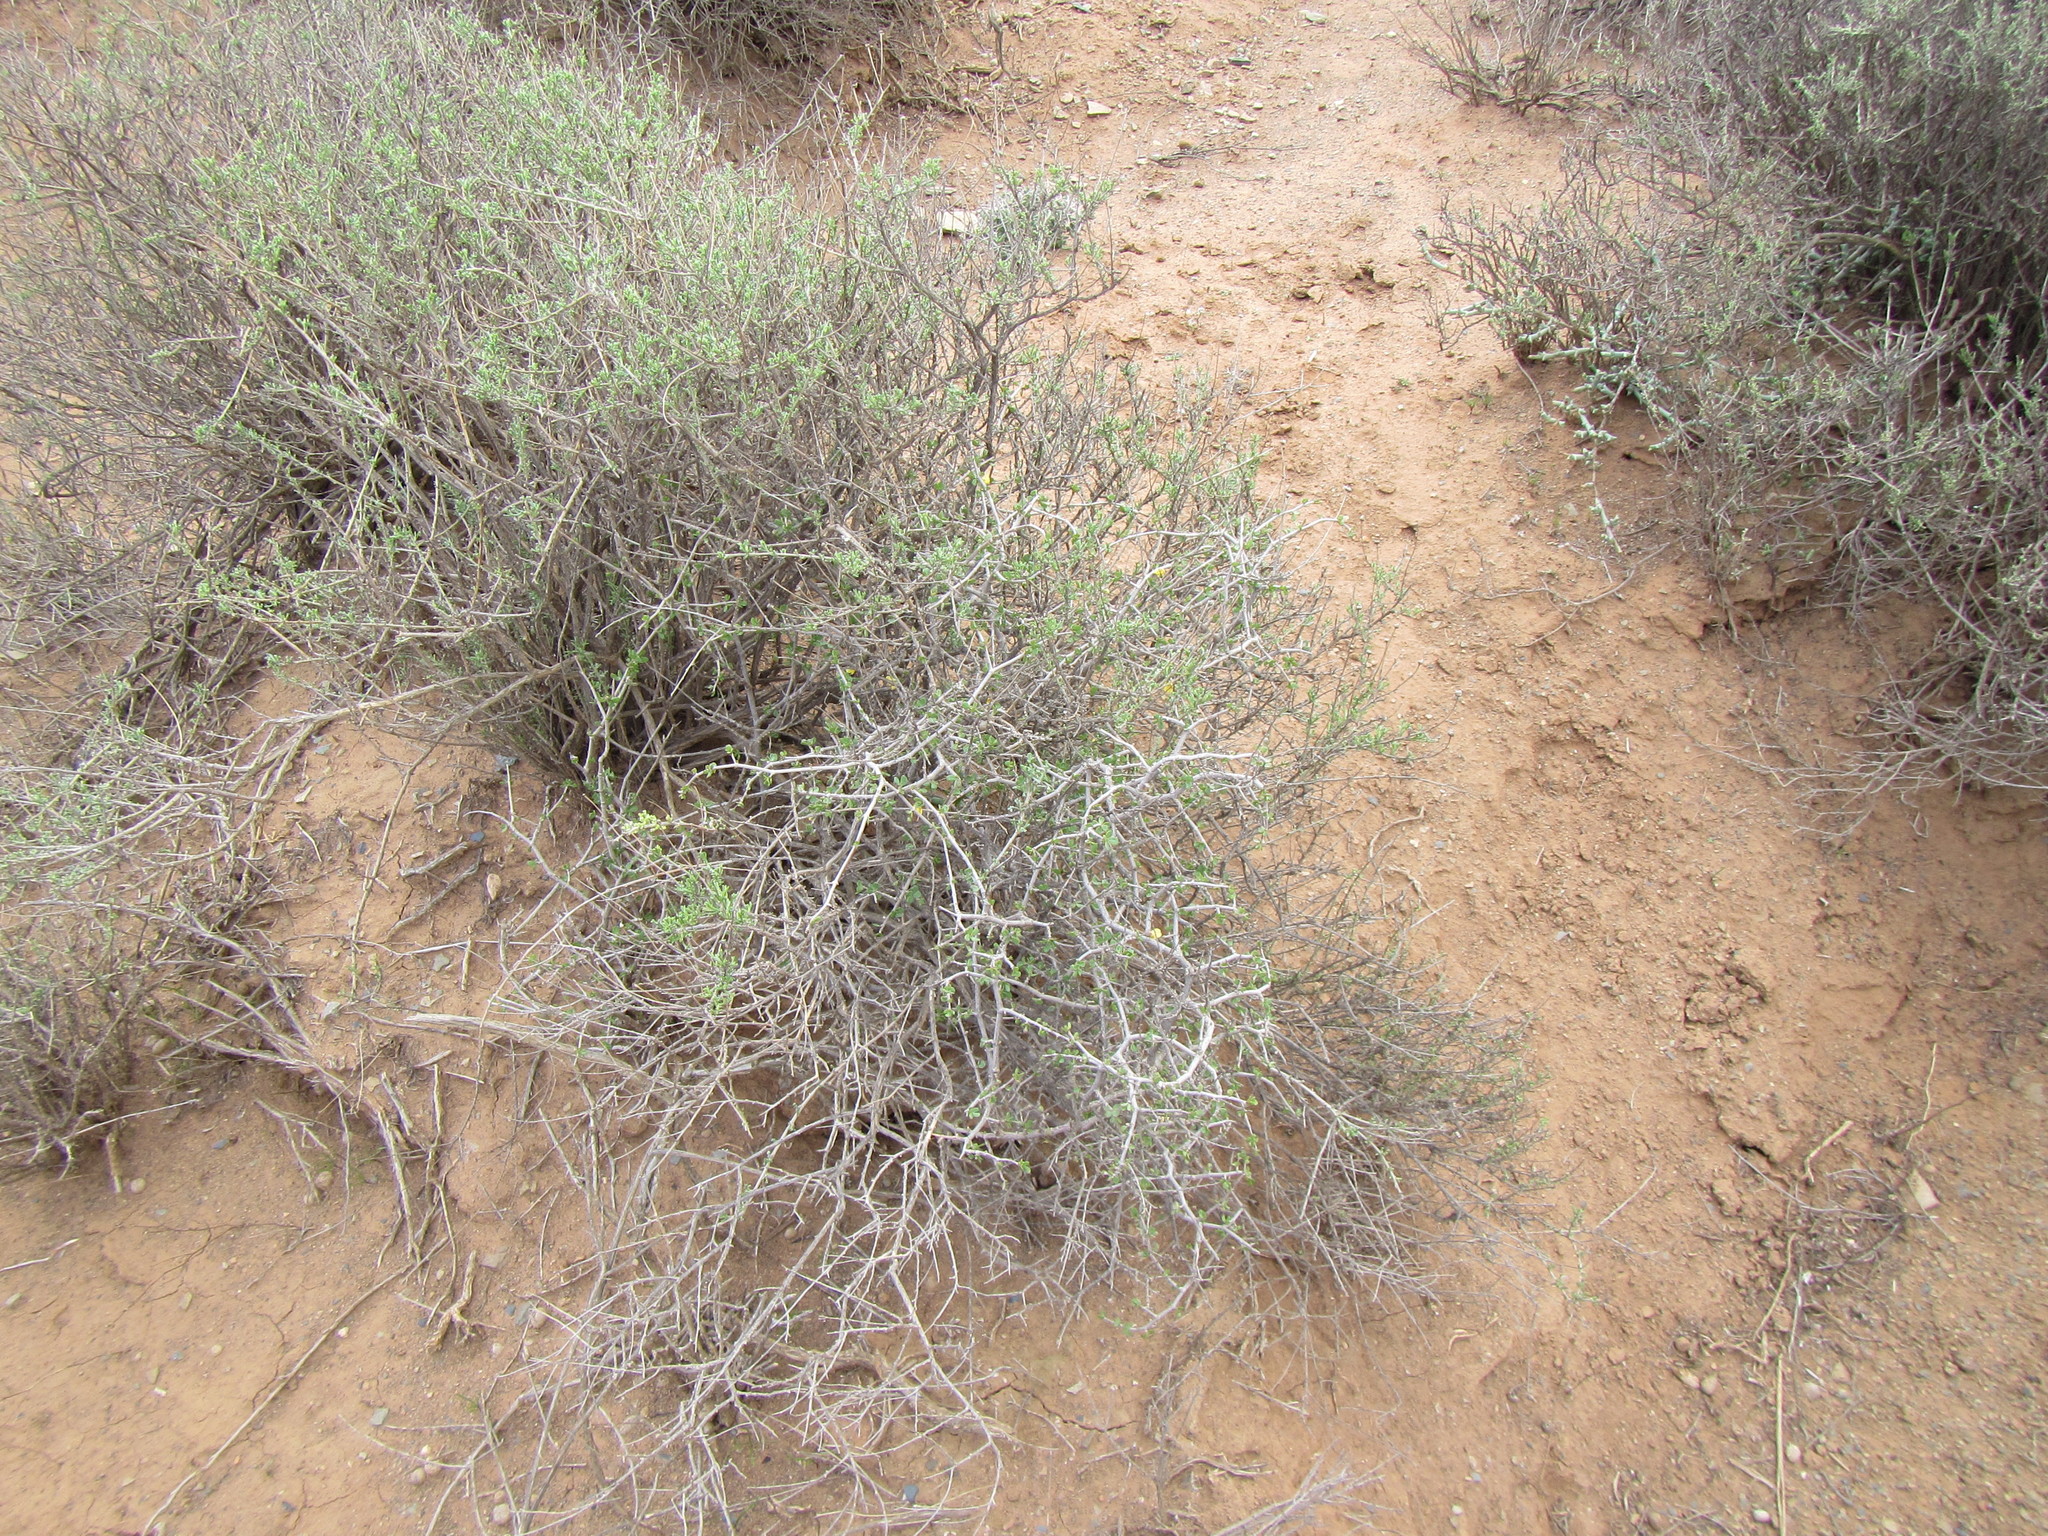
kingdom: Plantae
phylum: Tracheophyta
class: Magnoliopsida
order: Zygophyllales
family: Zygophyllaceae
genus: Roepera
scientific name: Roepera lichtensteiniana
